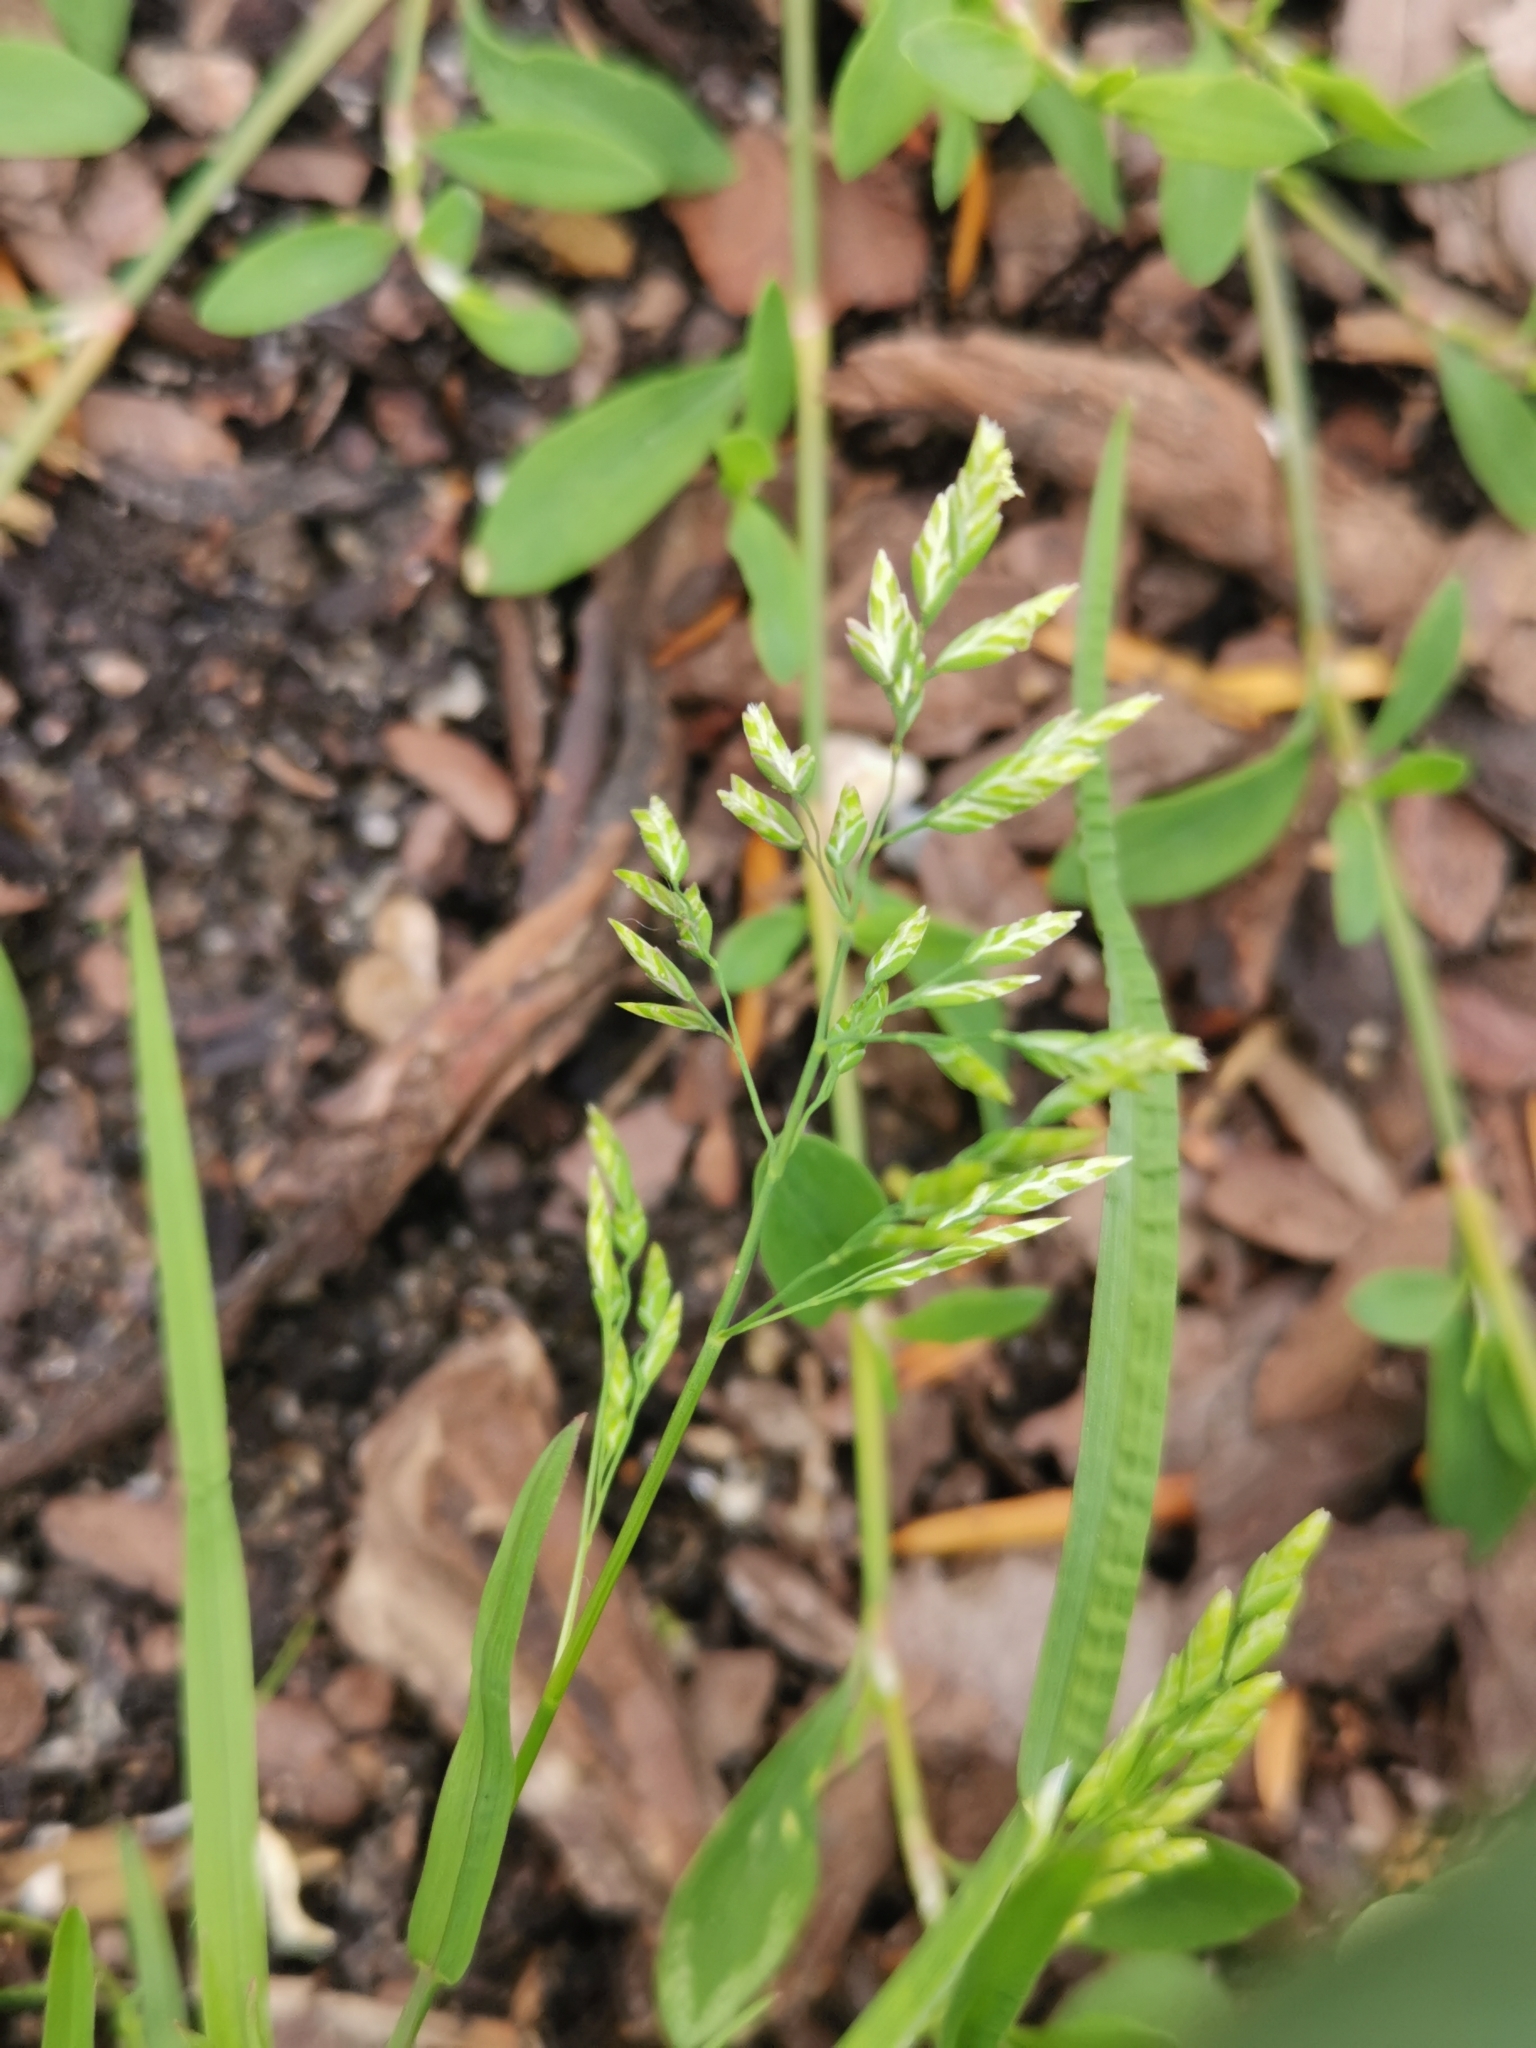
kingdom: Plantae
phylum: Tracheophyta
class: Liliopsida
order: Poales
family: Poaceae
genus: Poa
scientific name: Poa annua
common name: Annual bluegrass
